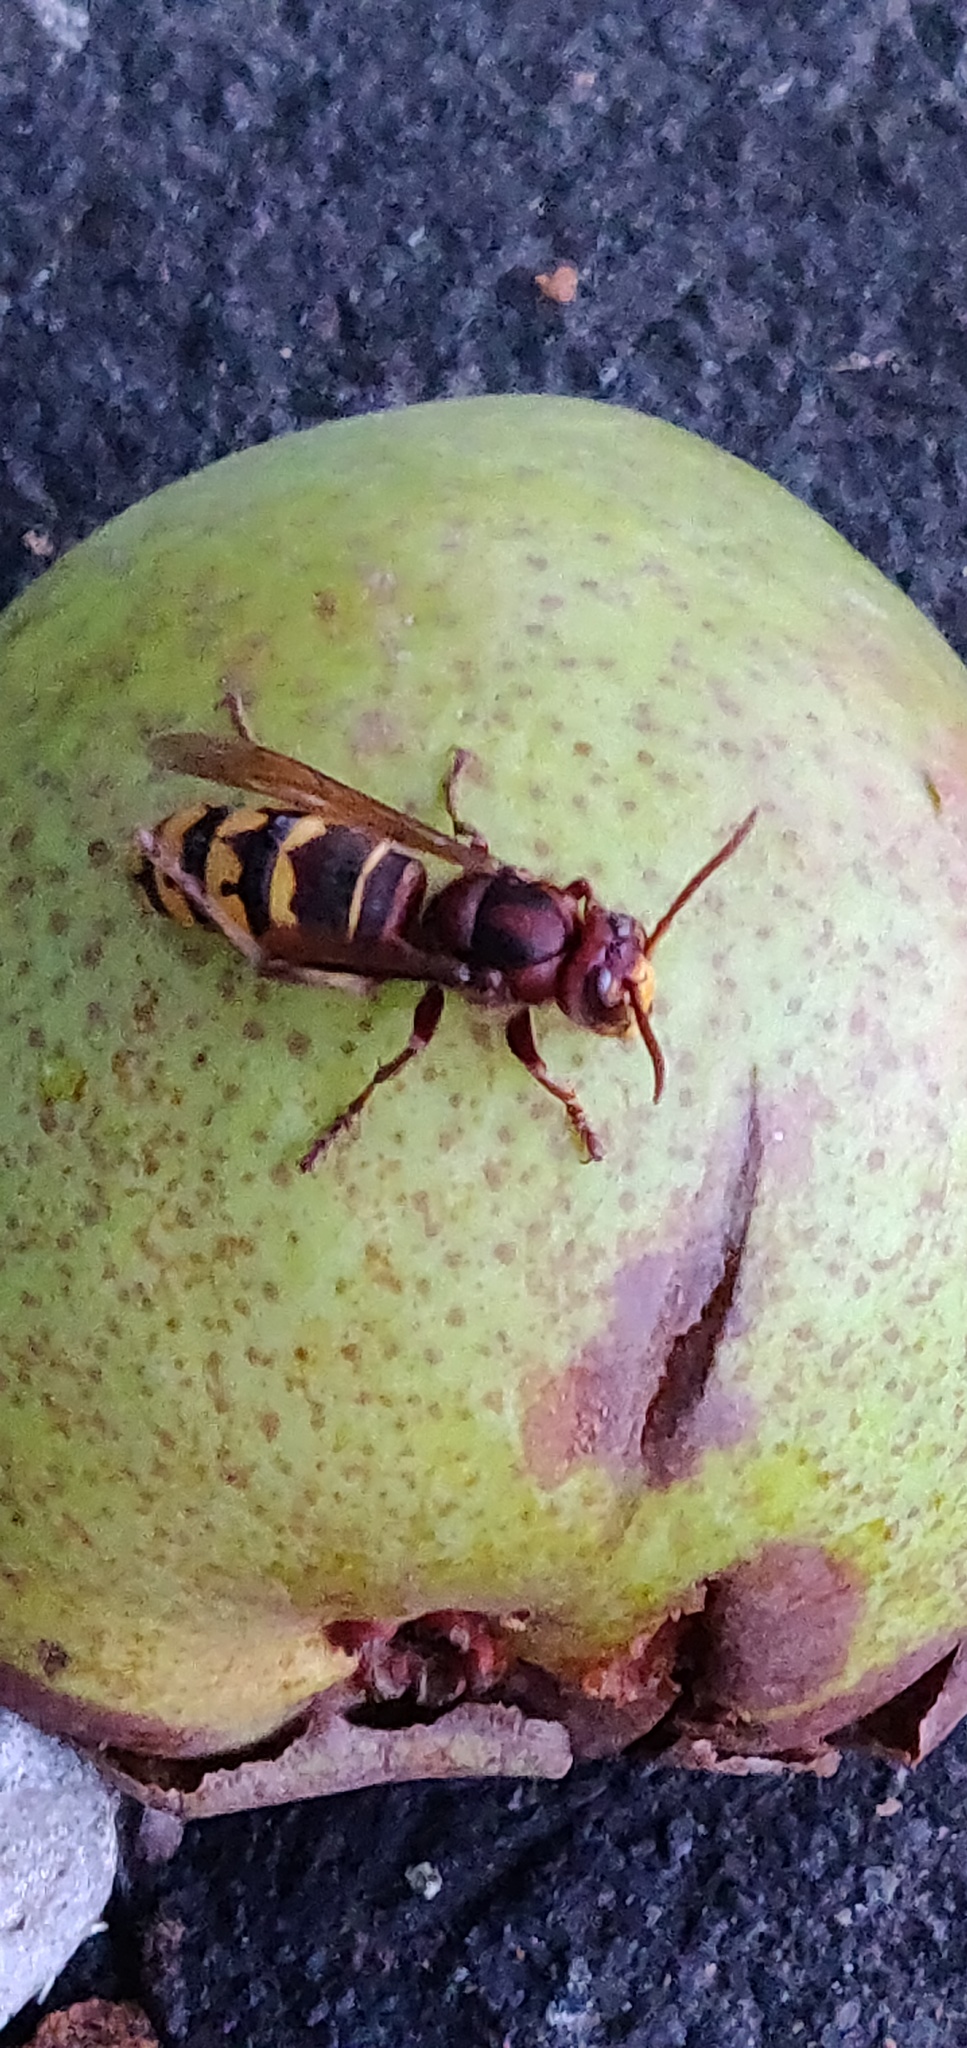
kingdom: Animalia
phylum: Arthropoda
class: Insecta
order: Hymenoptera
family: Vespidae
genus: Vespa
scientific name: Vespa crabro
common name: Hornet
